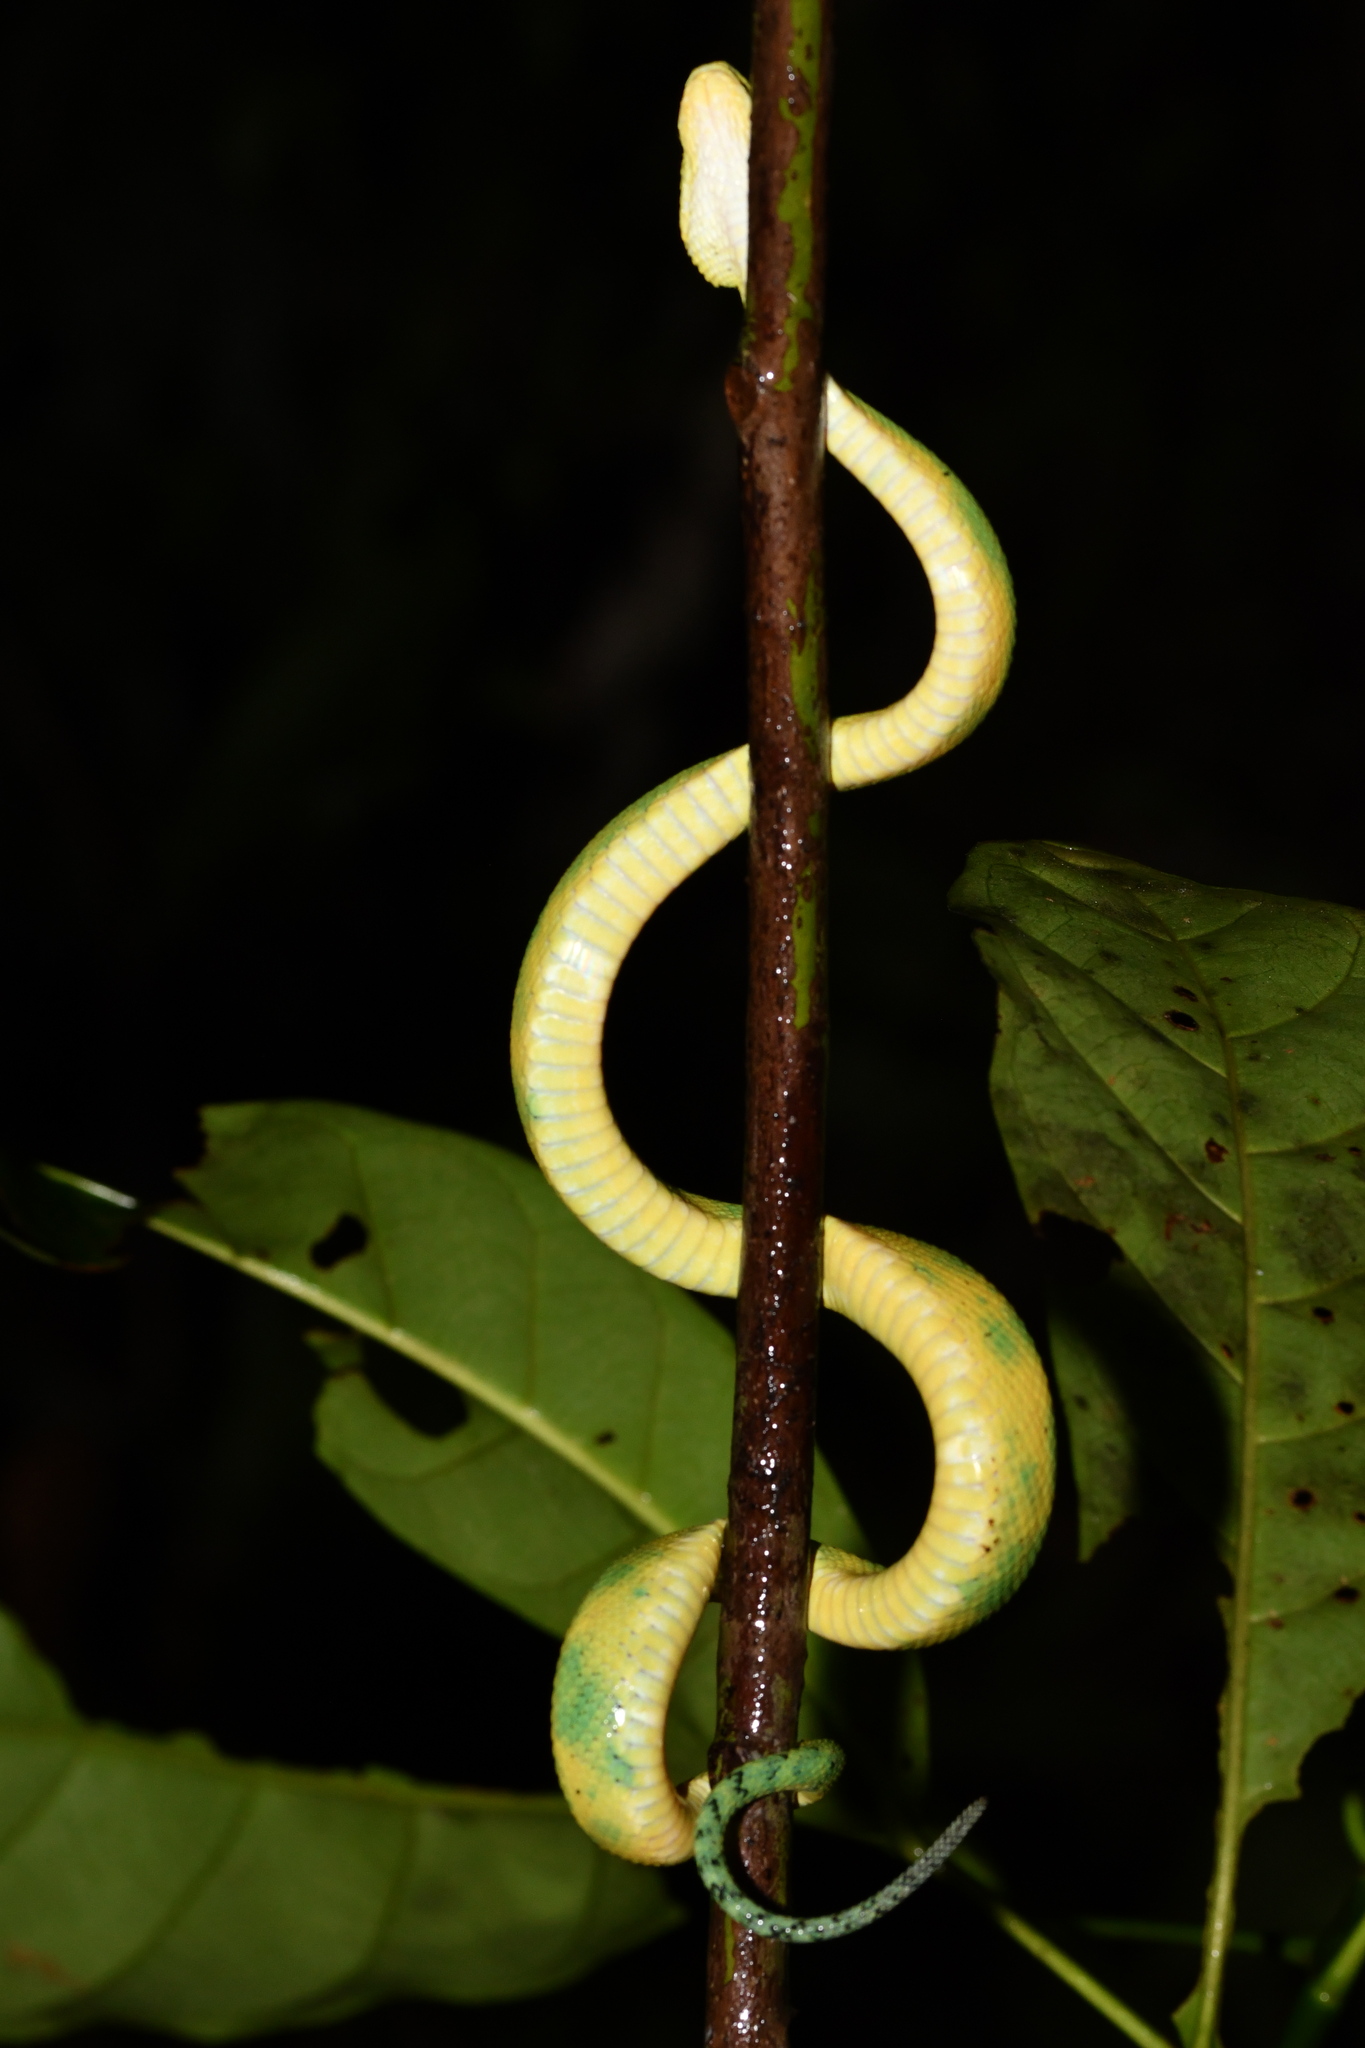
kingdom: Animalia
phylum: Chordata
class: Squamata
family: Viperidae
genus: Atheris
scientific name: Atheris chlorechis
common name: Green bush viper
